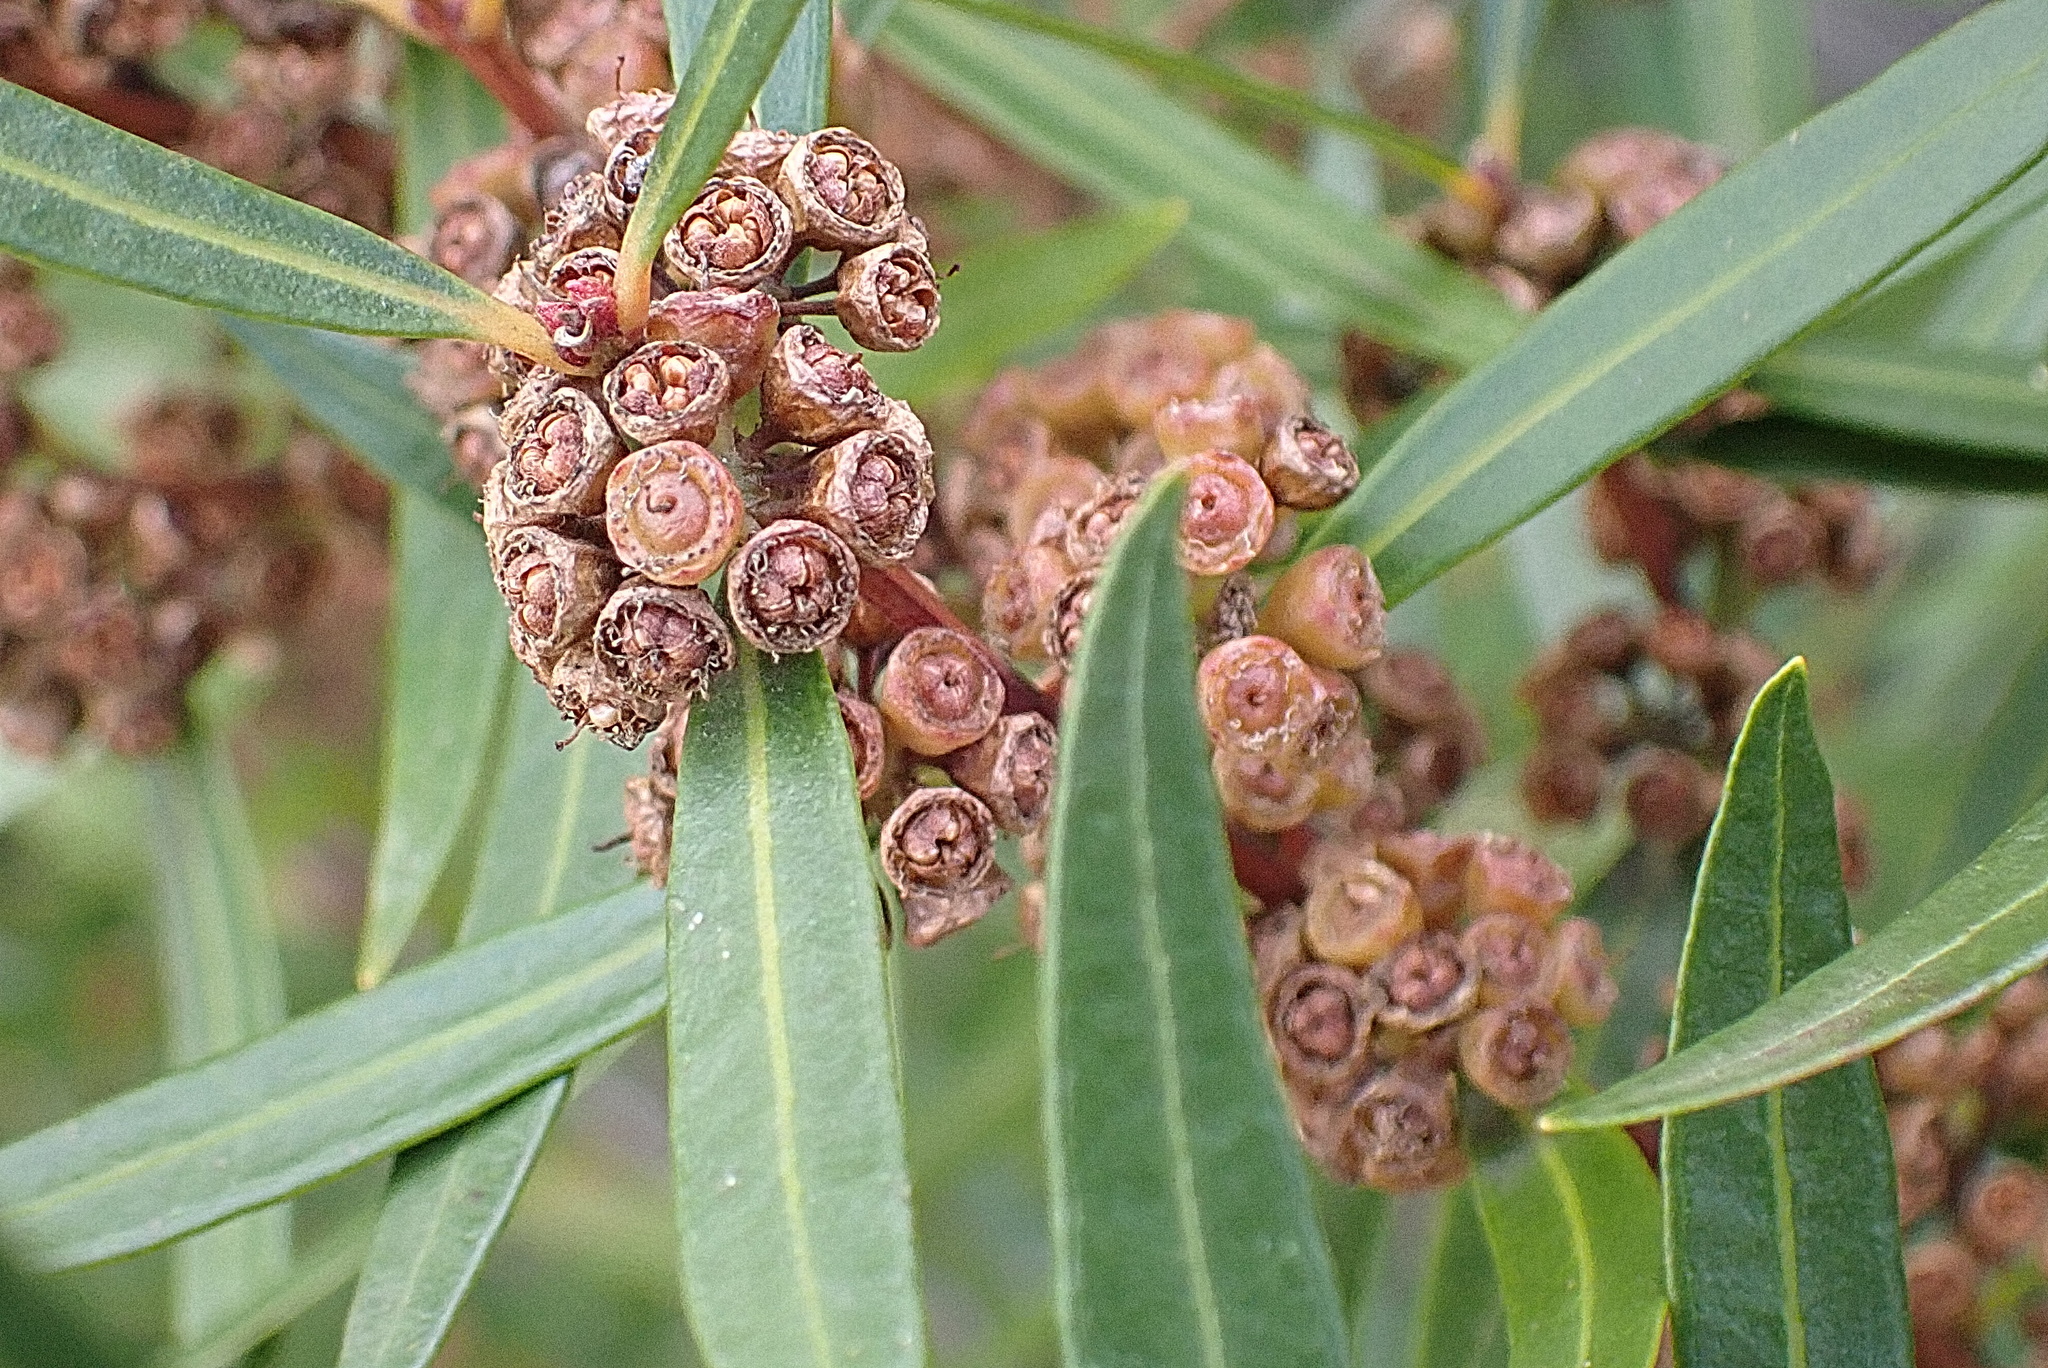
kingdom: Plantae
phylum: Tracheophyta
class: Magnoliopsida
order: Myrtales
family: Myrtaceae
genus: Callistemon
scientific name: Callistemon lanceolatus
